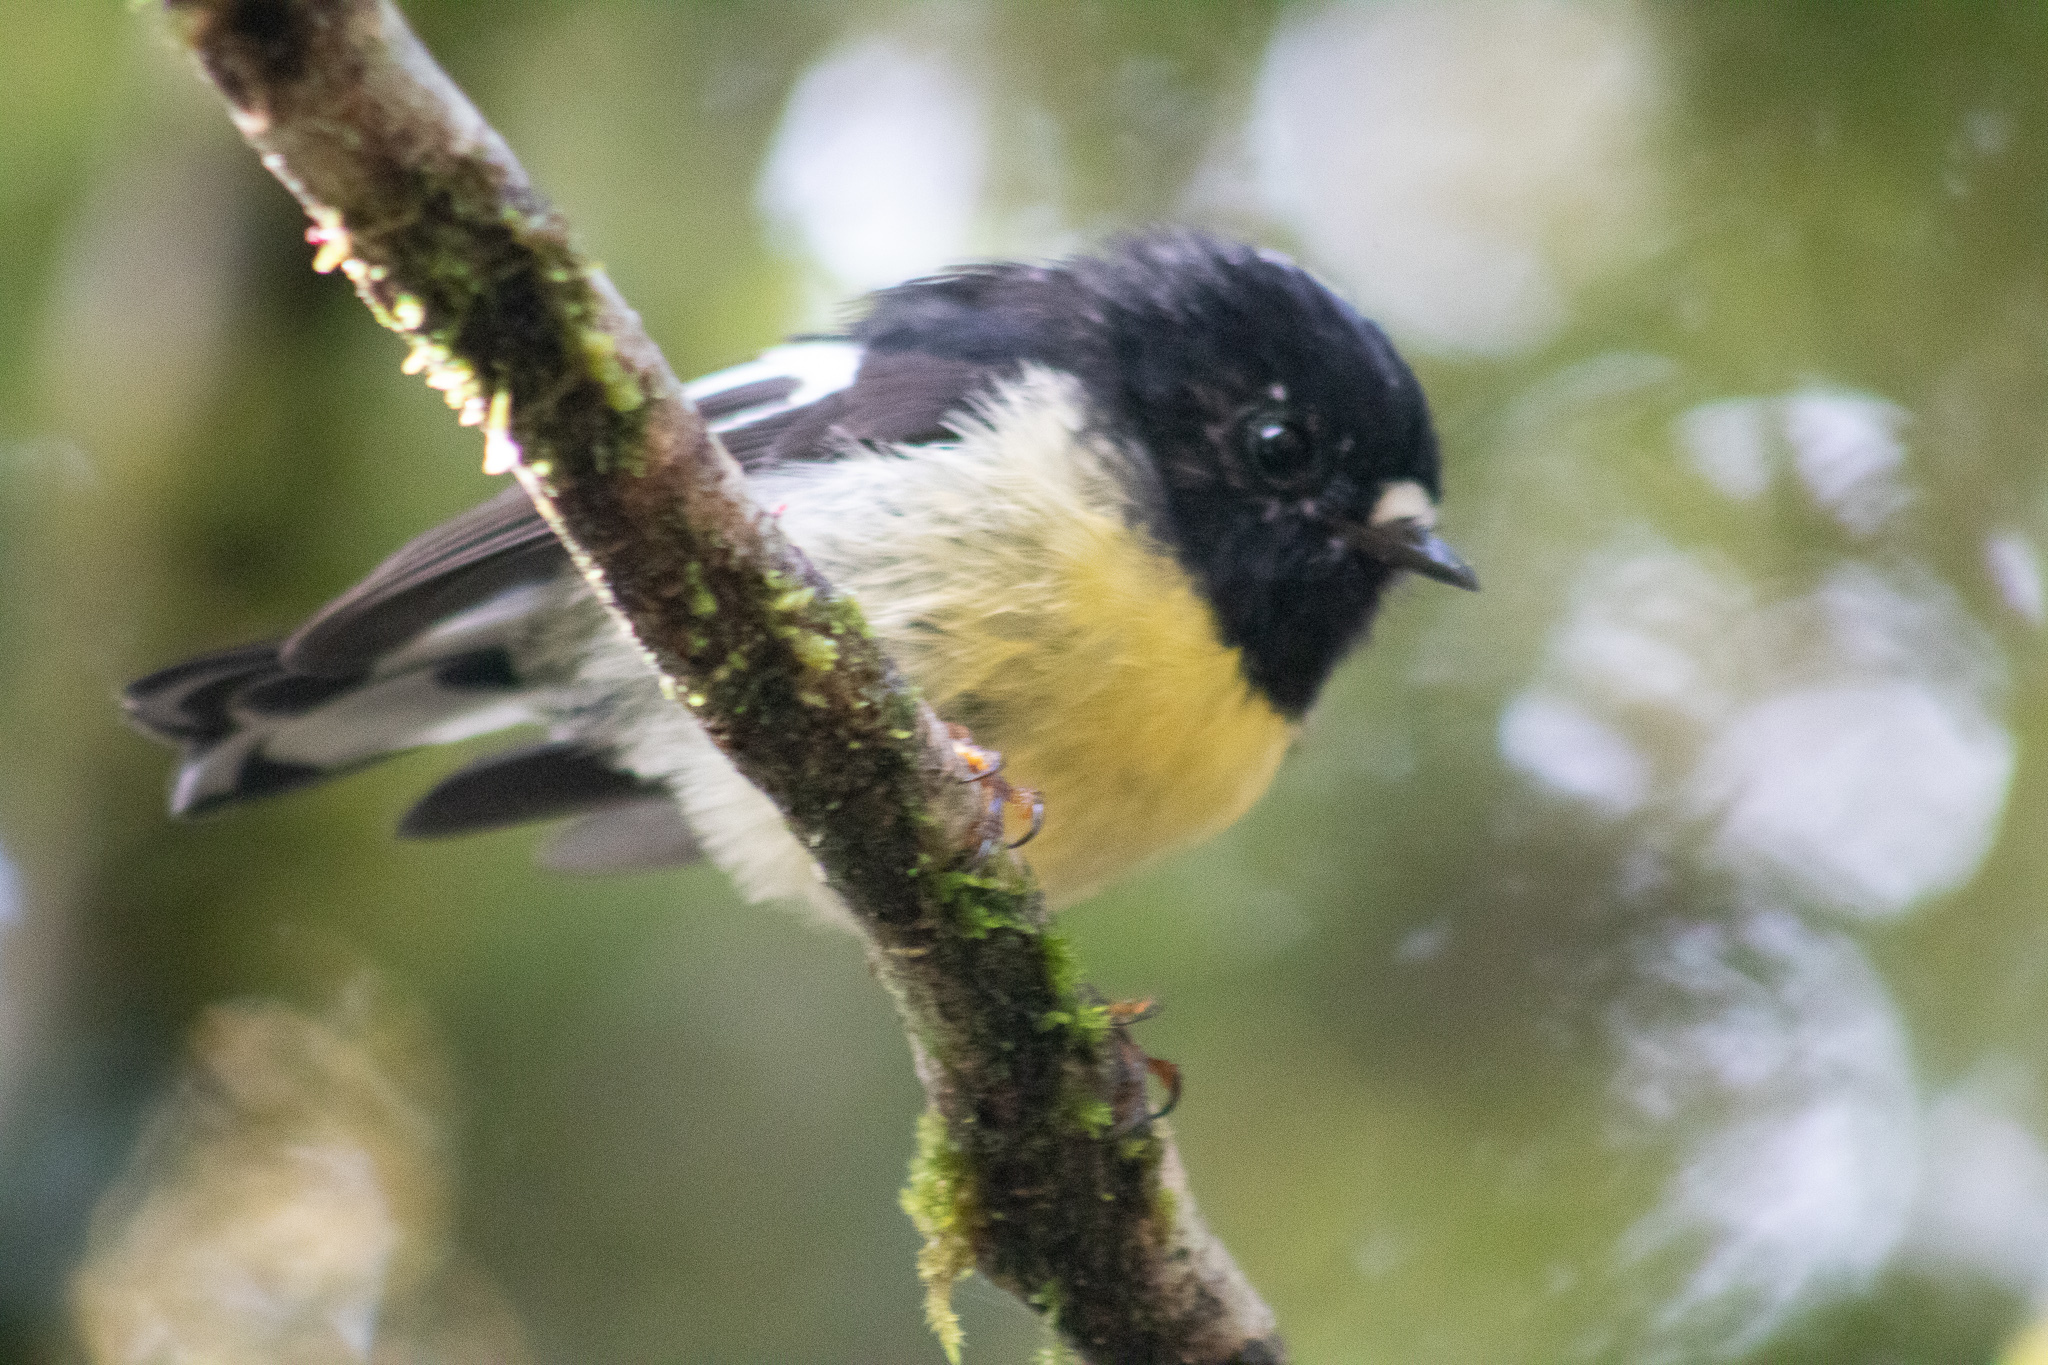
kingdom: Animalia
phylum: Chordata
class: Aves
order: Passeriformes
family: Petroicidae
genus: Petroica
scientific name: Petroica macrocephala
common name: Tomtit
